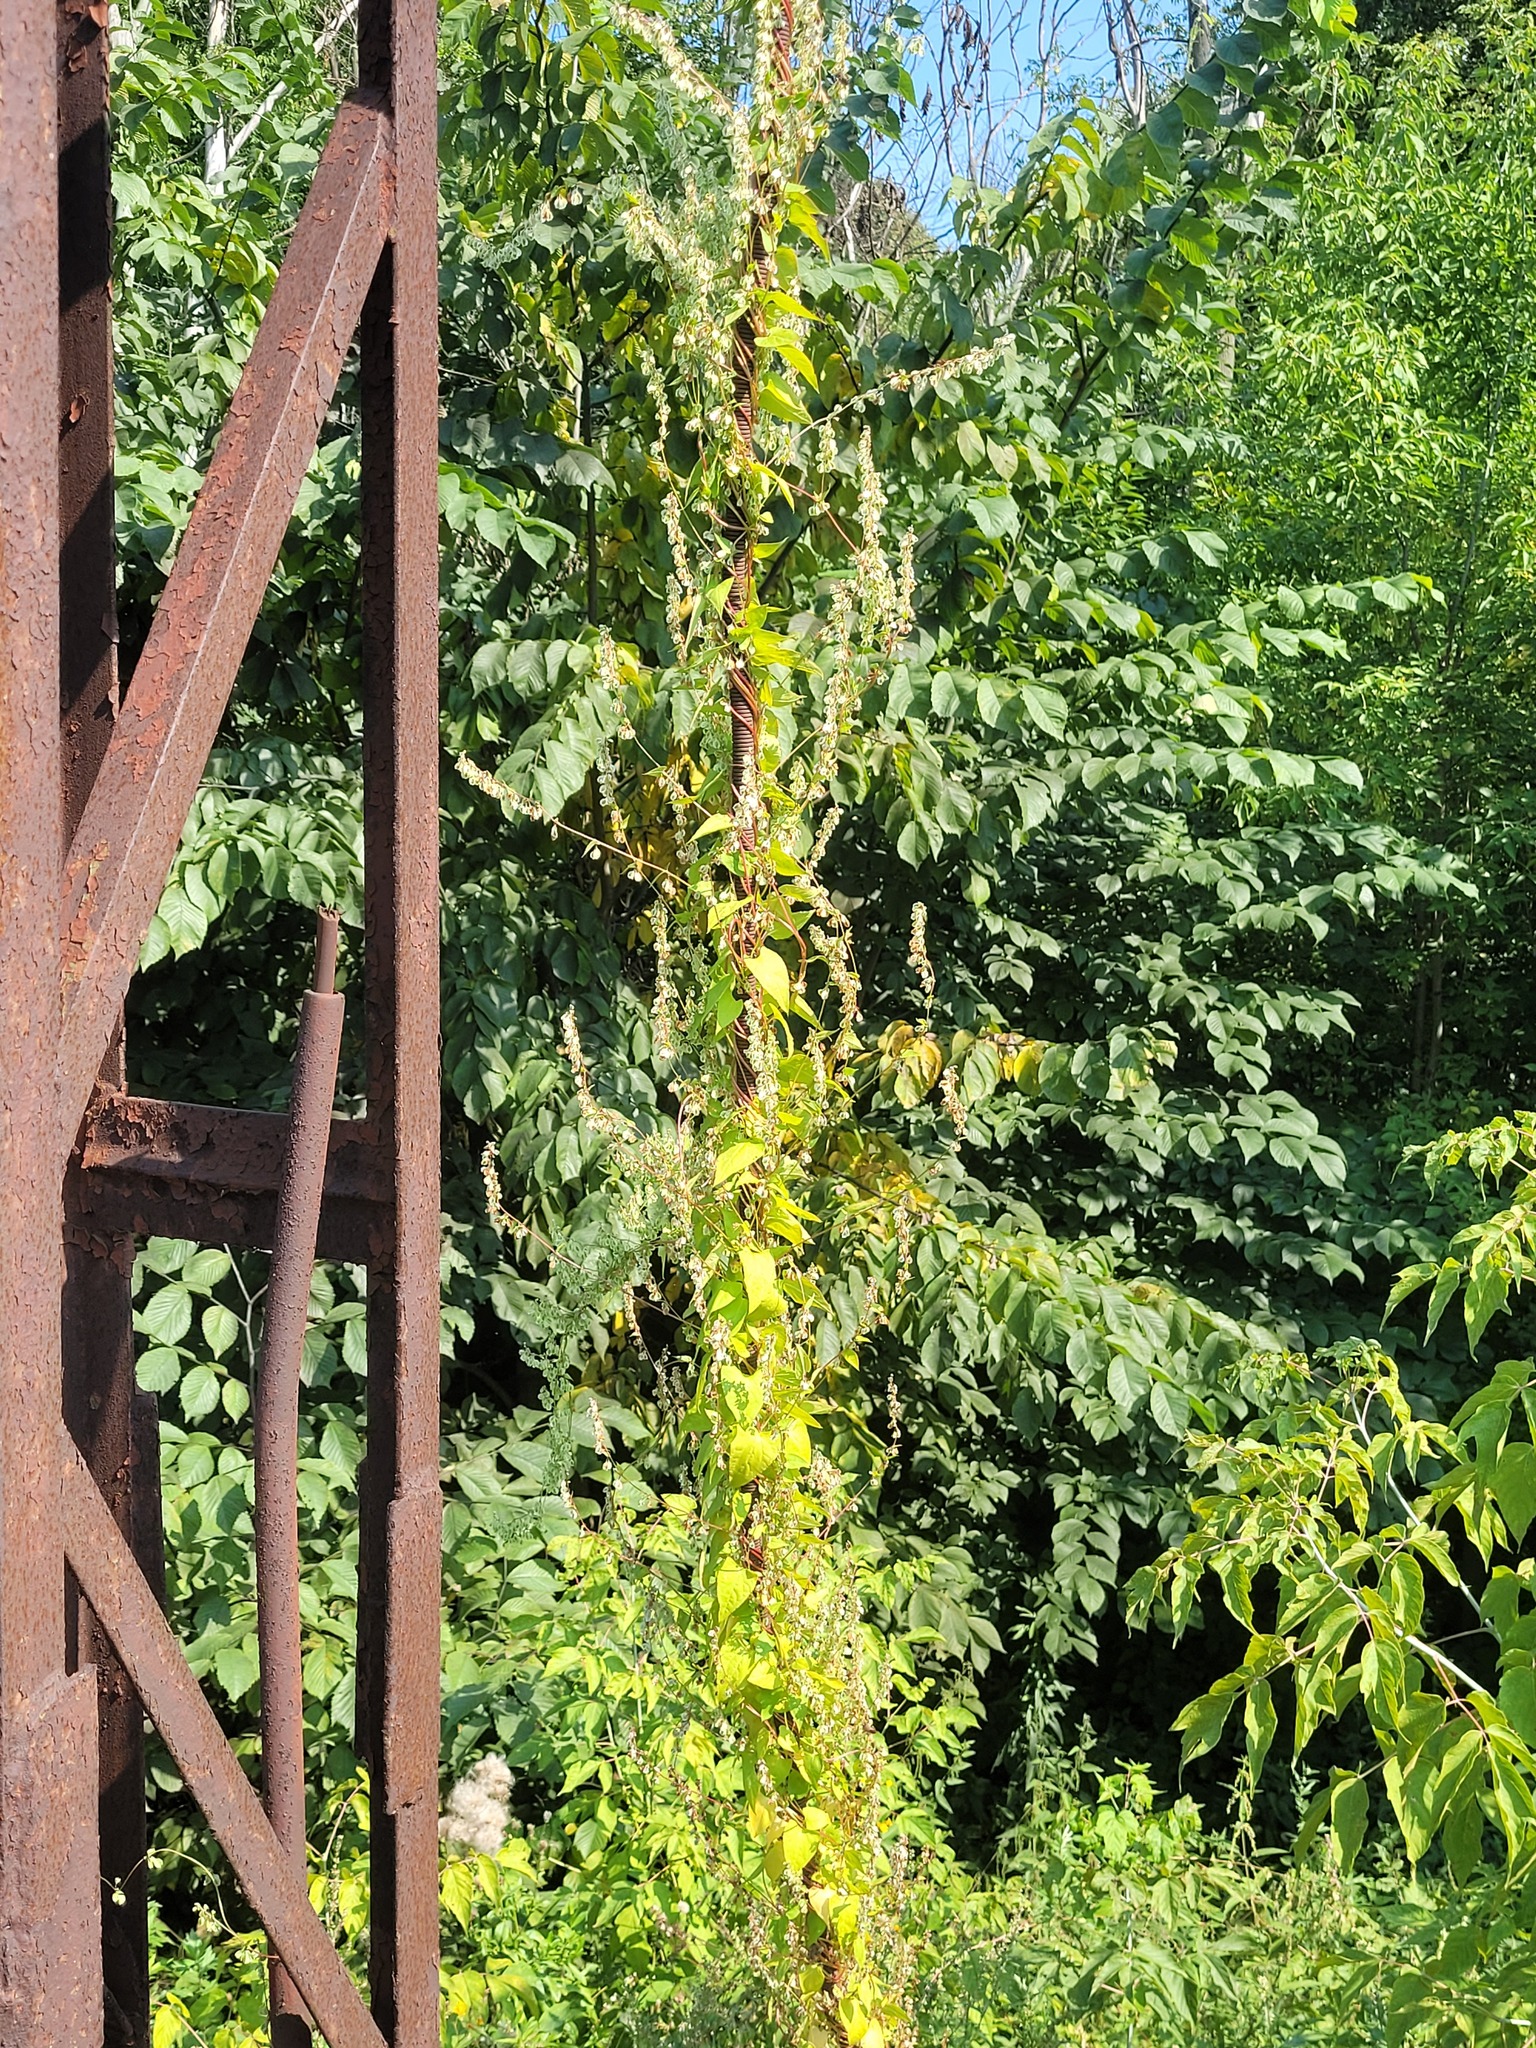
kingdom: Plantae
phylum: Tracheophyta
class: Magnoliopsida
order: Caryophyllales
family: Polygonaceae
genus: Fallopia
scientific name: Fallopia dumetorum
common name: Copse-bindweed
